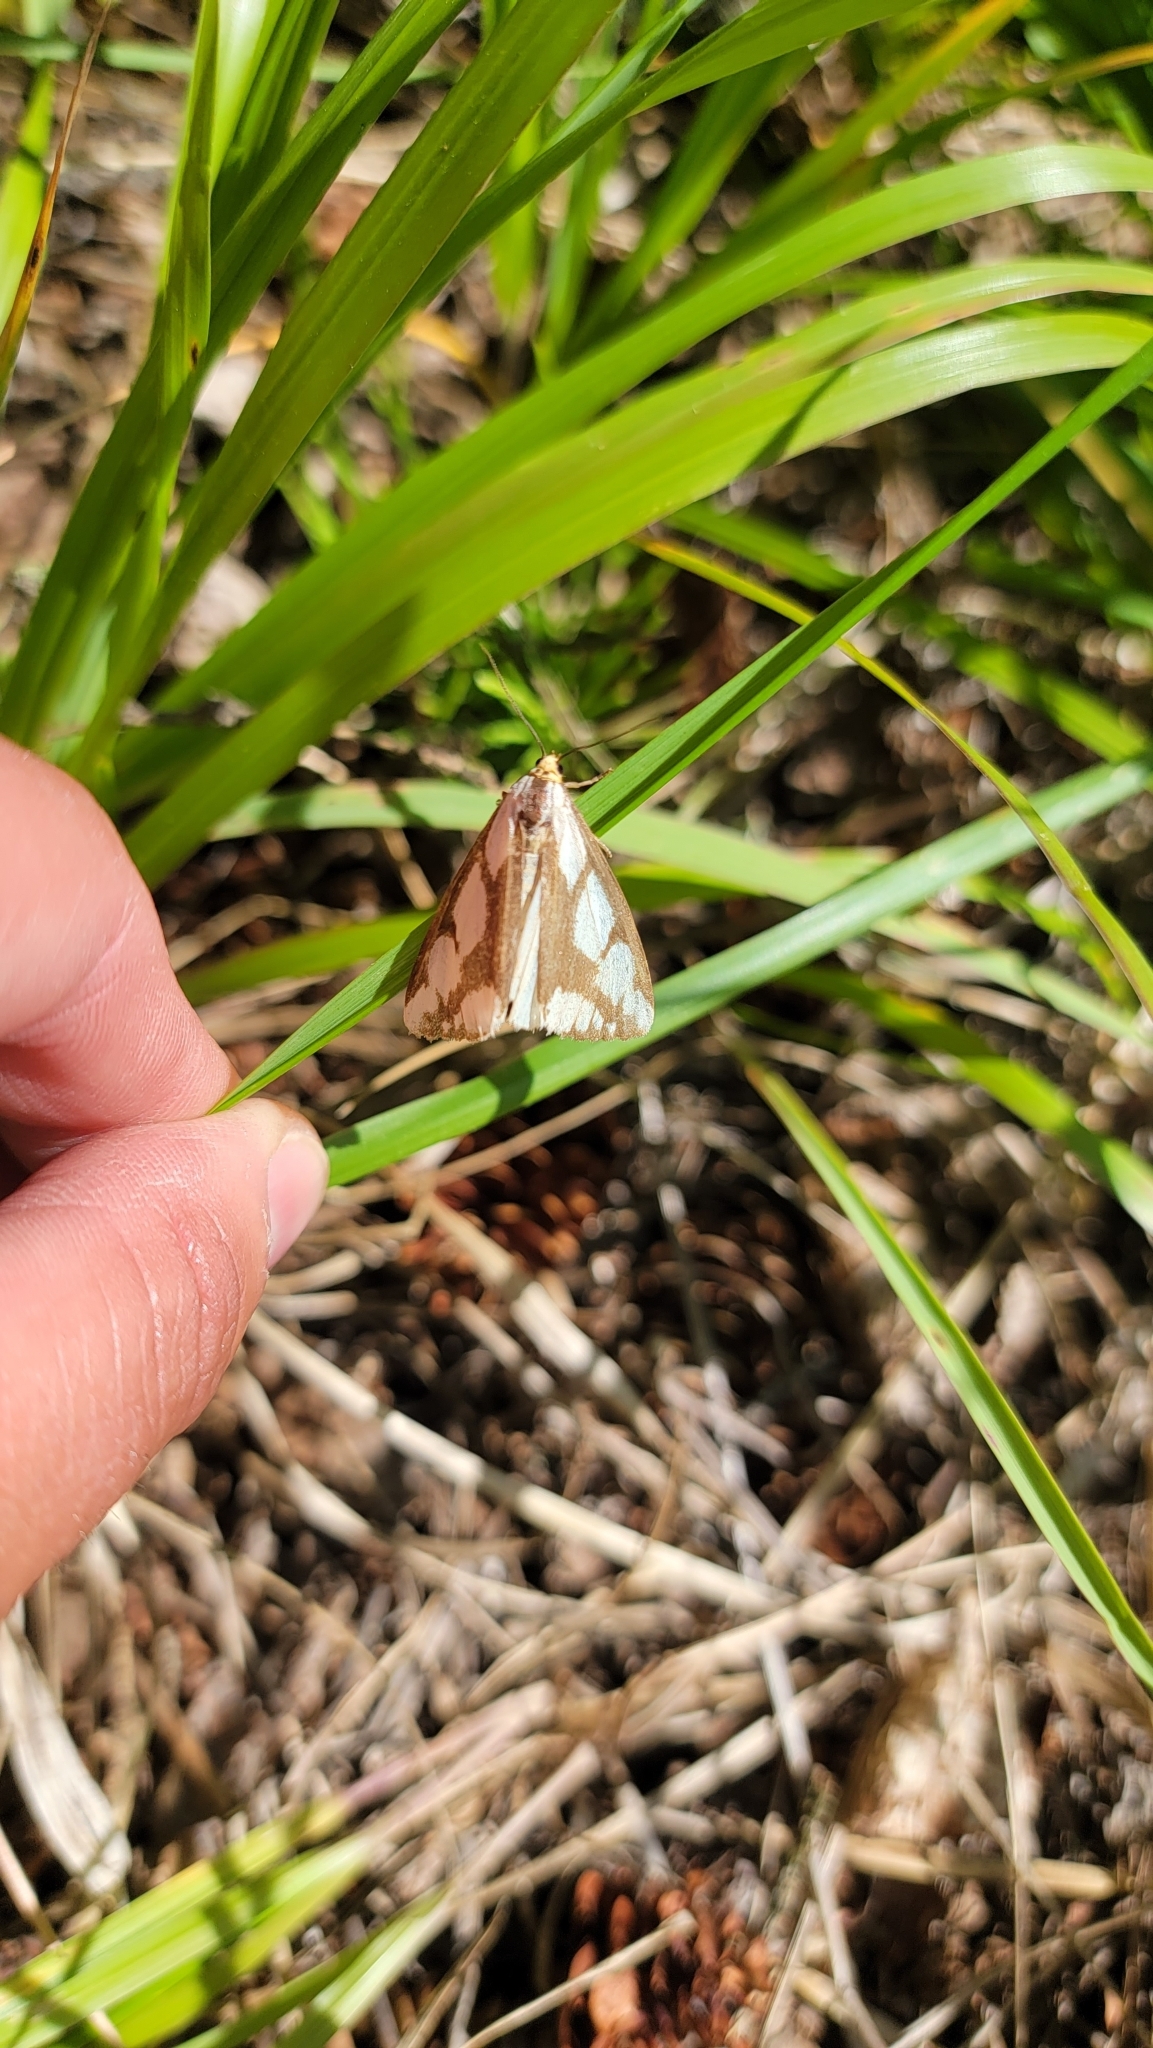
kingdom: Animalia
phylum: Arthropoda
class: Insecta
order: Lepidoptera
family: Erebidae
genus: Haploa
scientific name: Haploa lecontei
